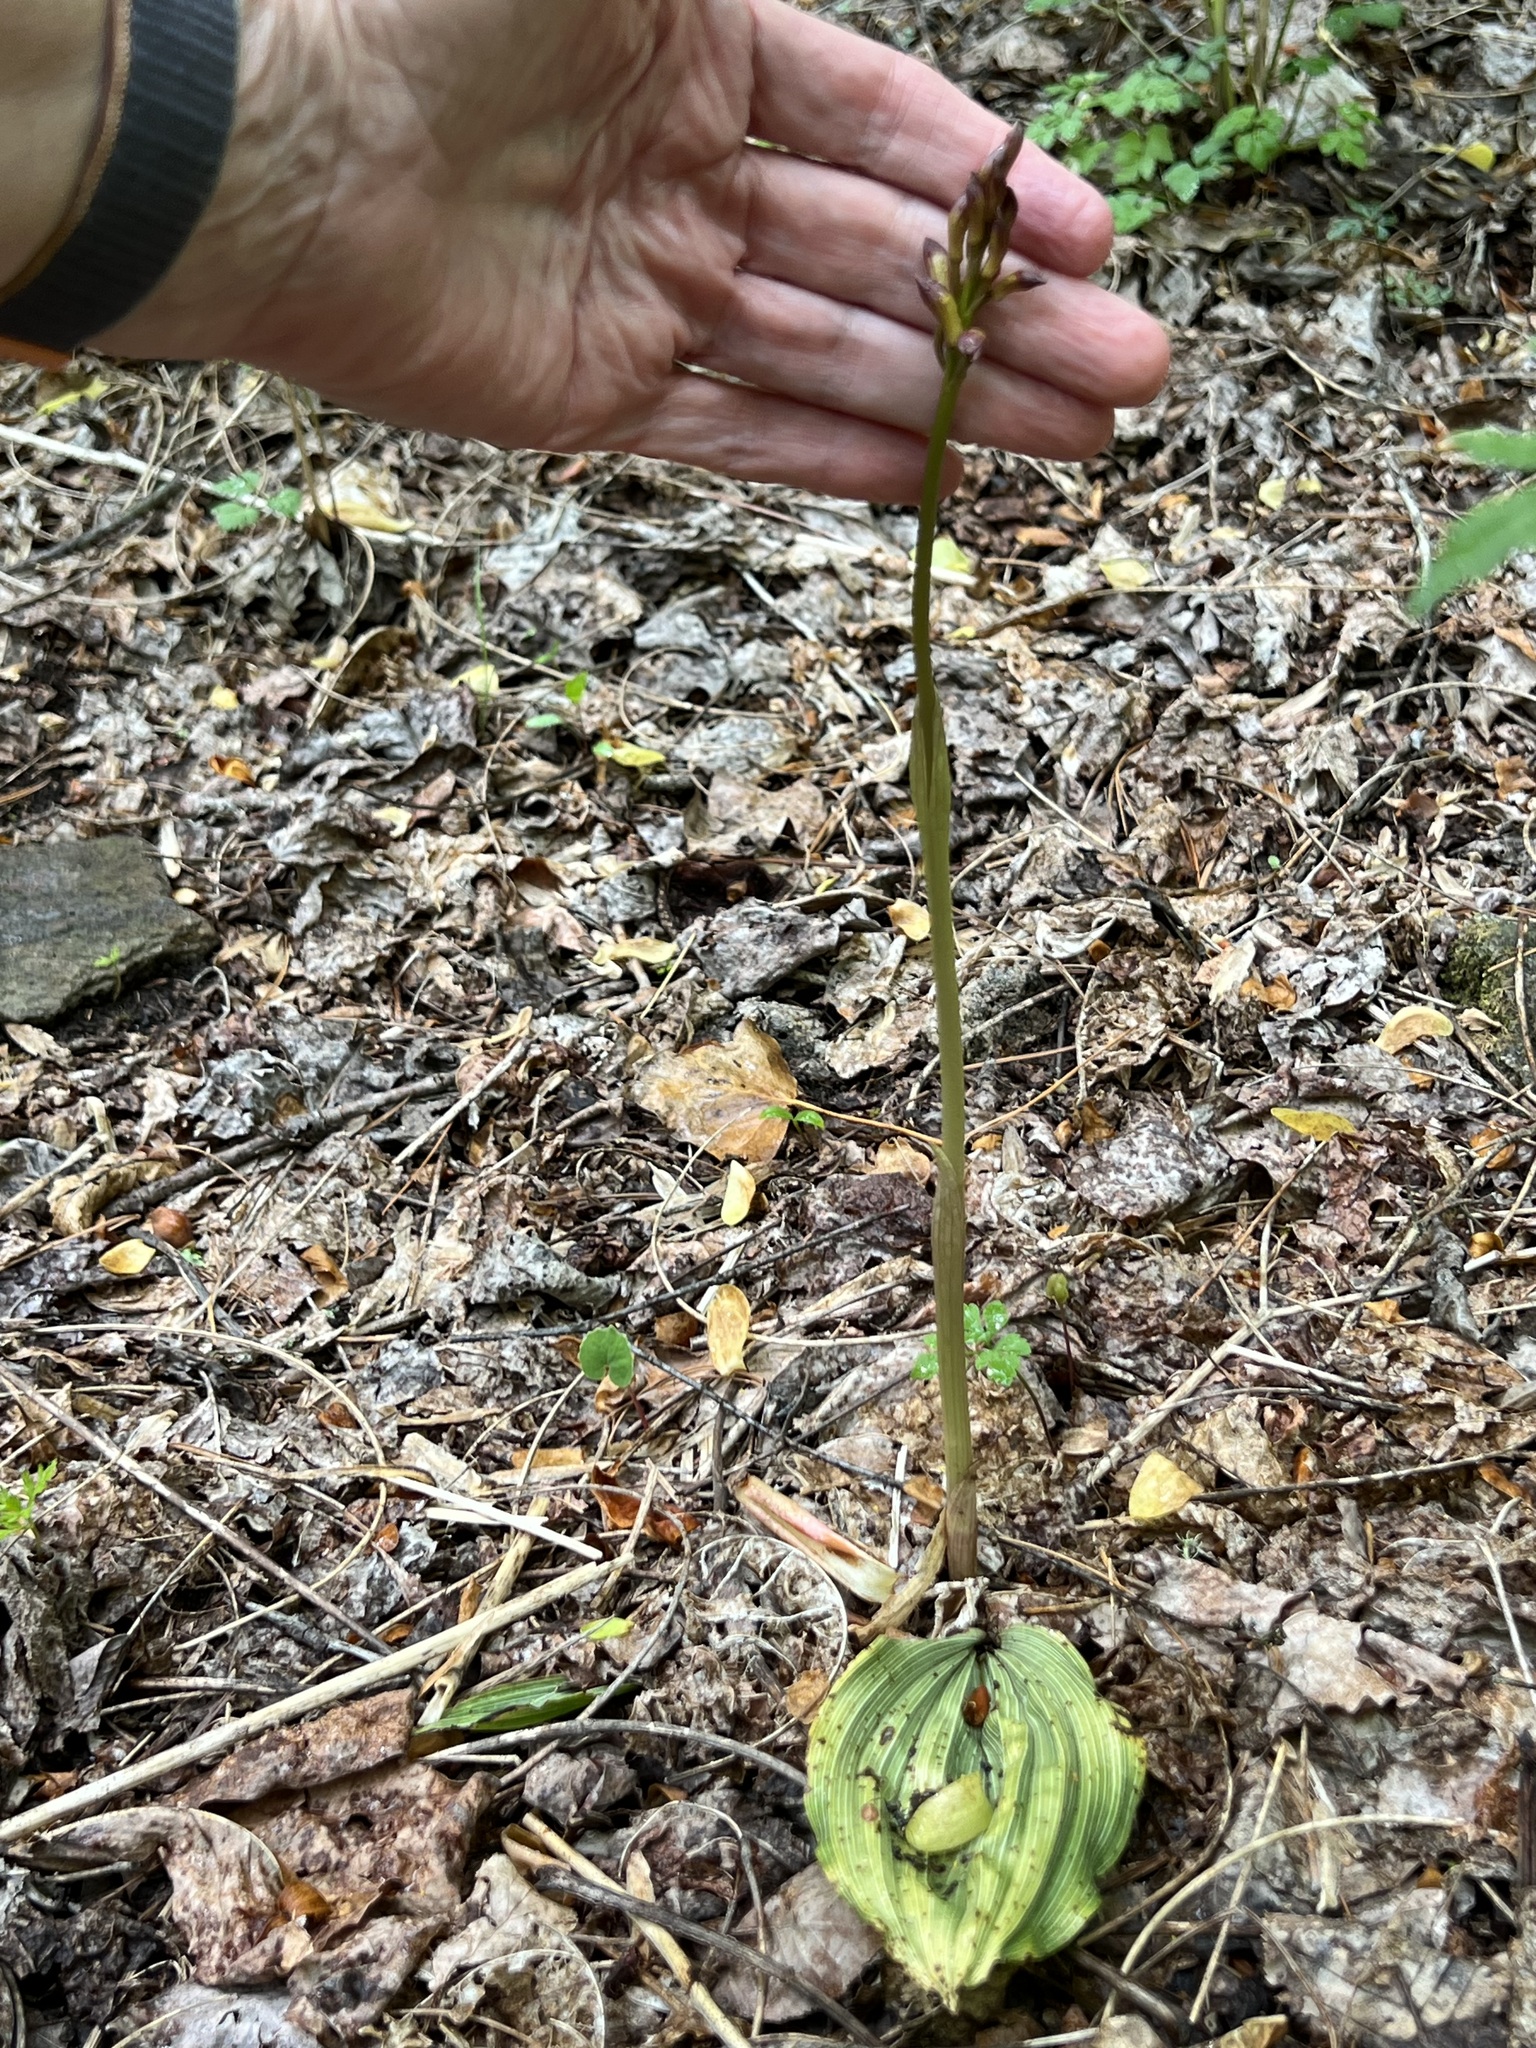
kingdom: Plantae
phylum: Tracheophyta
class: Liliopsida
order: Asparagales
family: Orchidaceae
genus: Aplectrum
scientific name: Aplectrum hyemale
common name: Adam-and-eve
